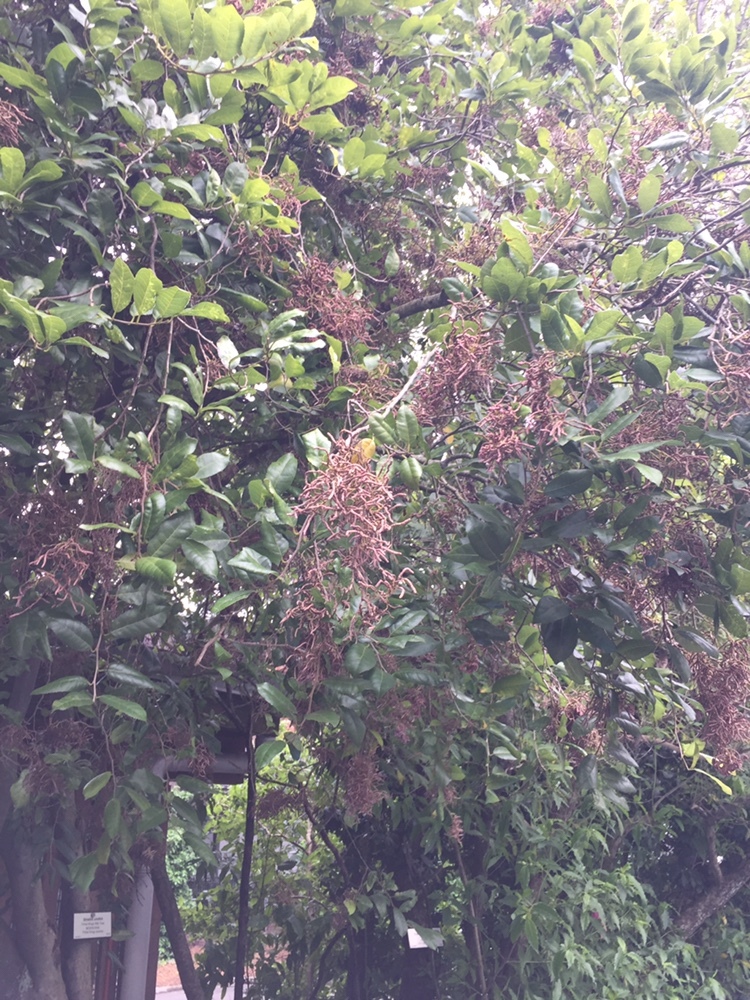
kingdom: Animalia
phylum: Arthropoda
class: Arachnida
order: Trombidiformes
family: Eriophyidae
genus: Eriophyes
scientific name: Eriophyes
